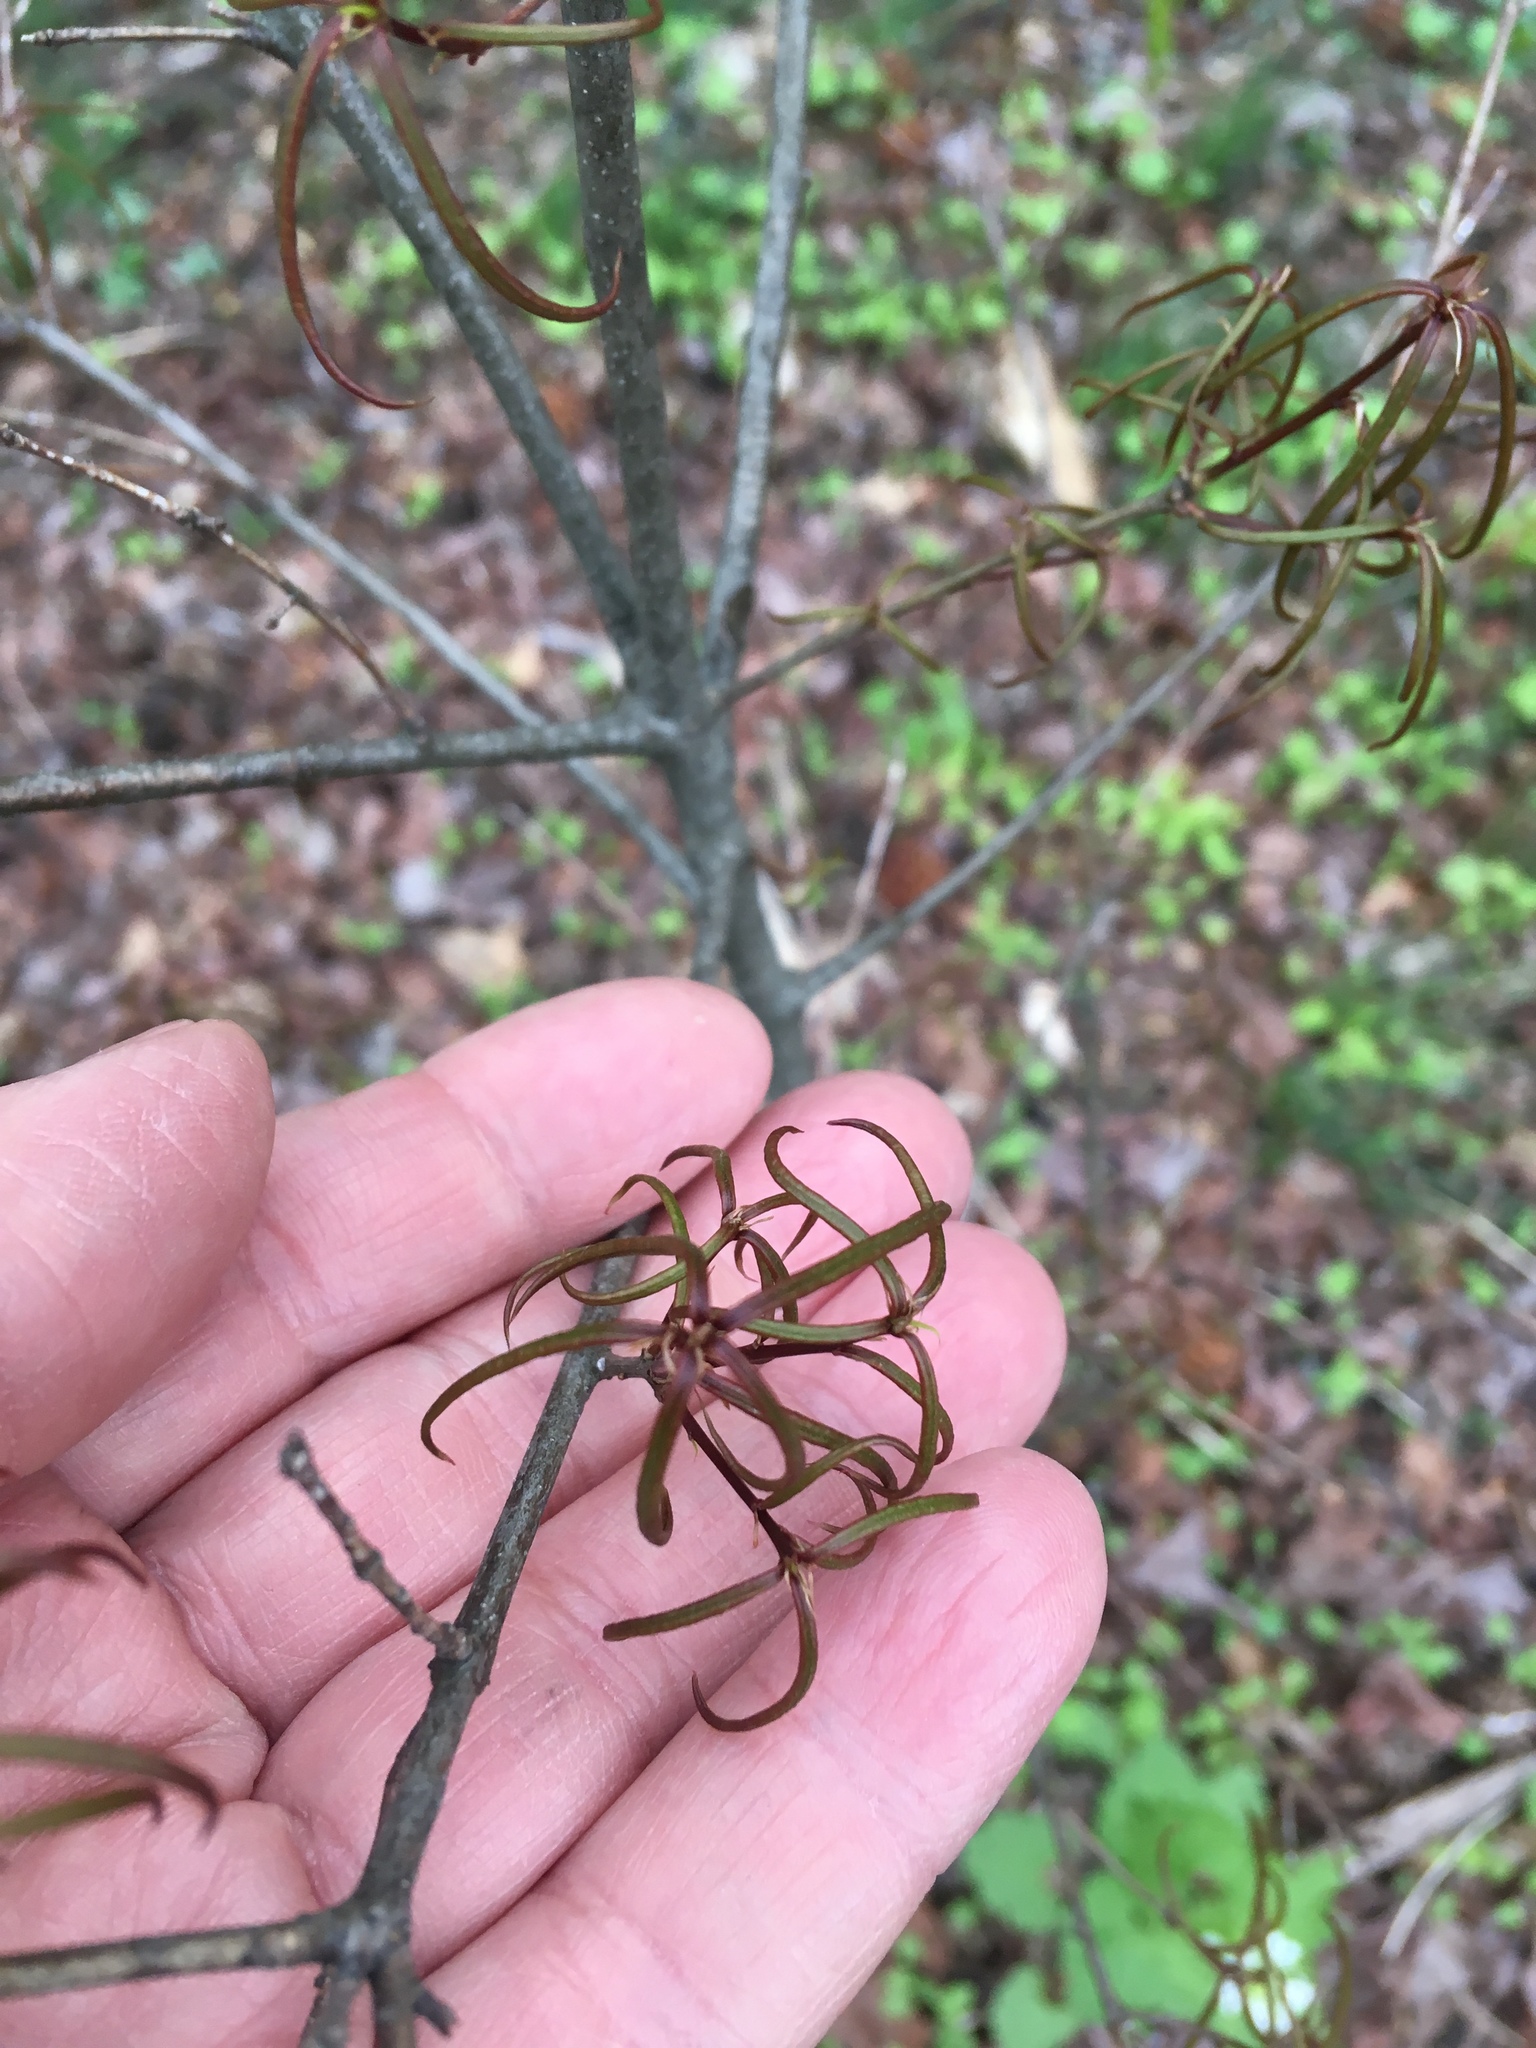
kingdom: Plantae
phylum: Tracheophyta
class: Magnoliopsida
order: Fagales
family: Fagaceae
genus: Quercus
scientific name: Quercus phellos
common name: Willow oak
